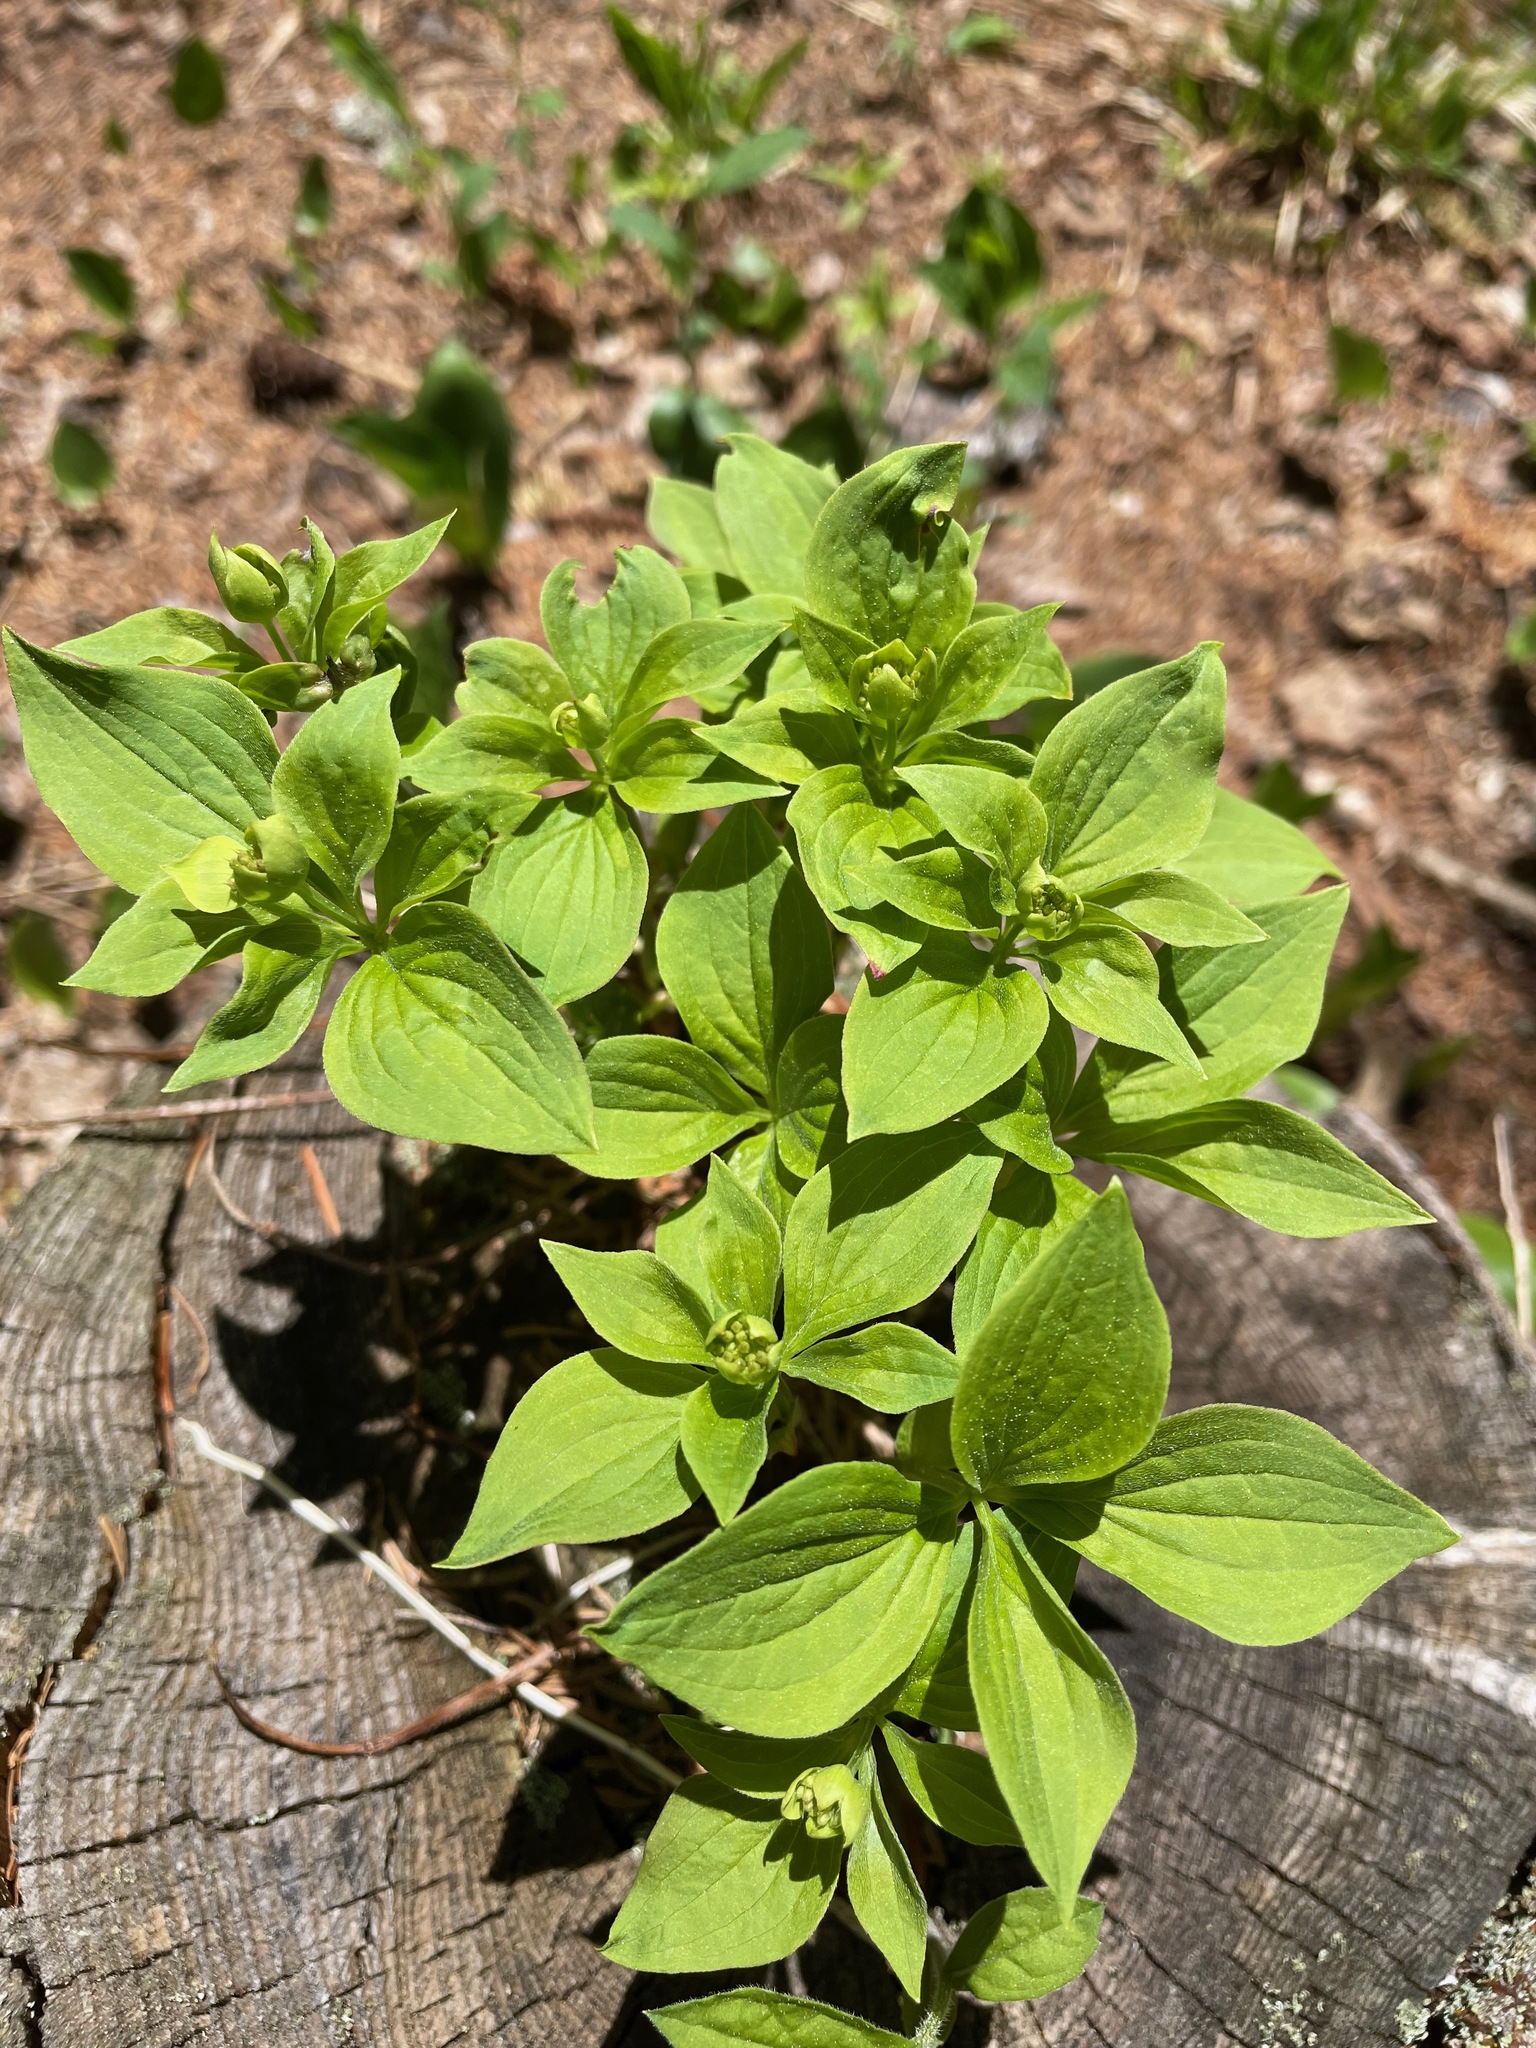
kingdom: Plantae
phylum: Tracheophyta
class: Magnoliopsida
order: Cornales
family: Cornaceae
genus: Cornus
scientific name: Cornus canadensis
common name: Creeping dogwood
